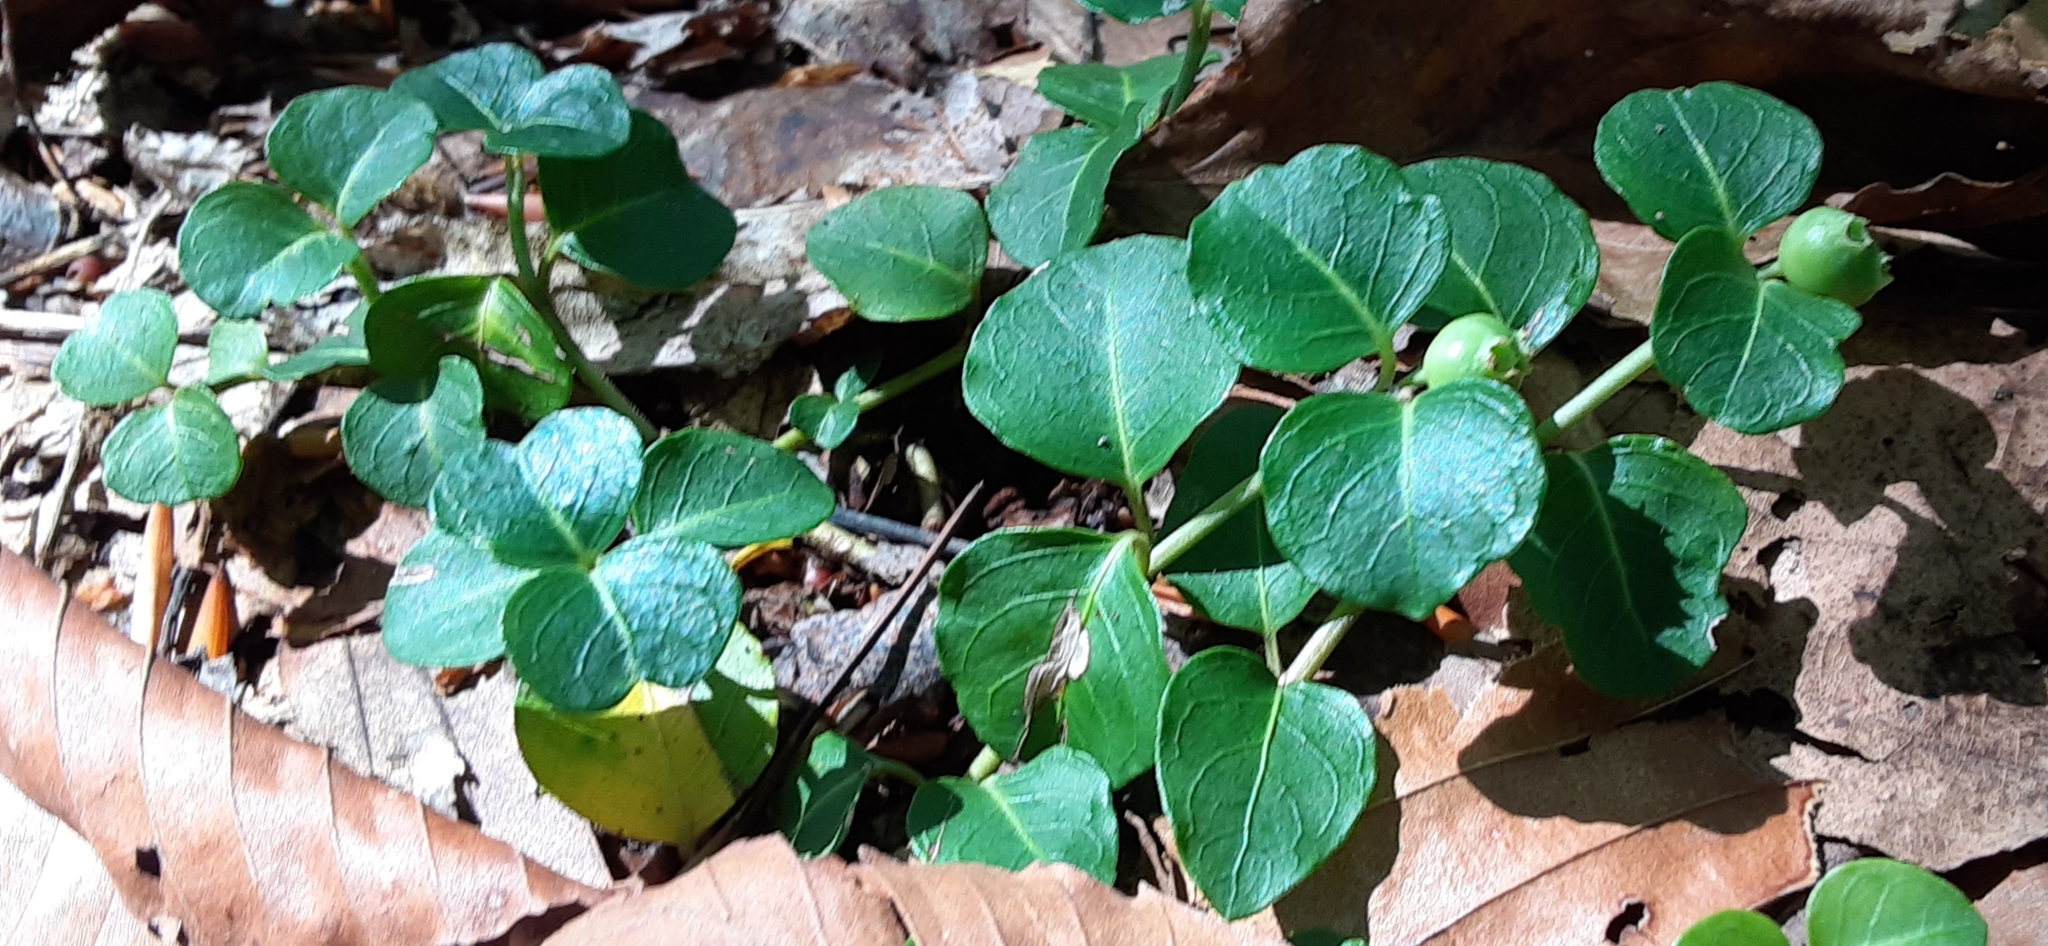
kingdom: Plantae
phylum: Tracheophyta
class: Magnoliopsida
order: Gentianales
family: Rubiaceae
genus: Mitchella
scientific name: Mitchella repens
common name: Partridge-berry
